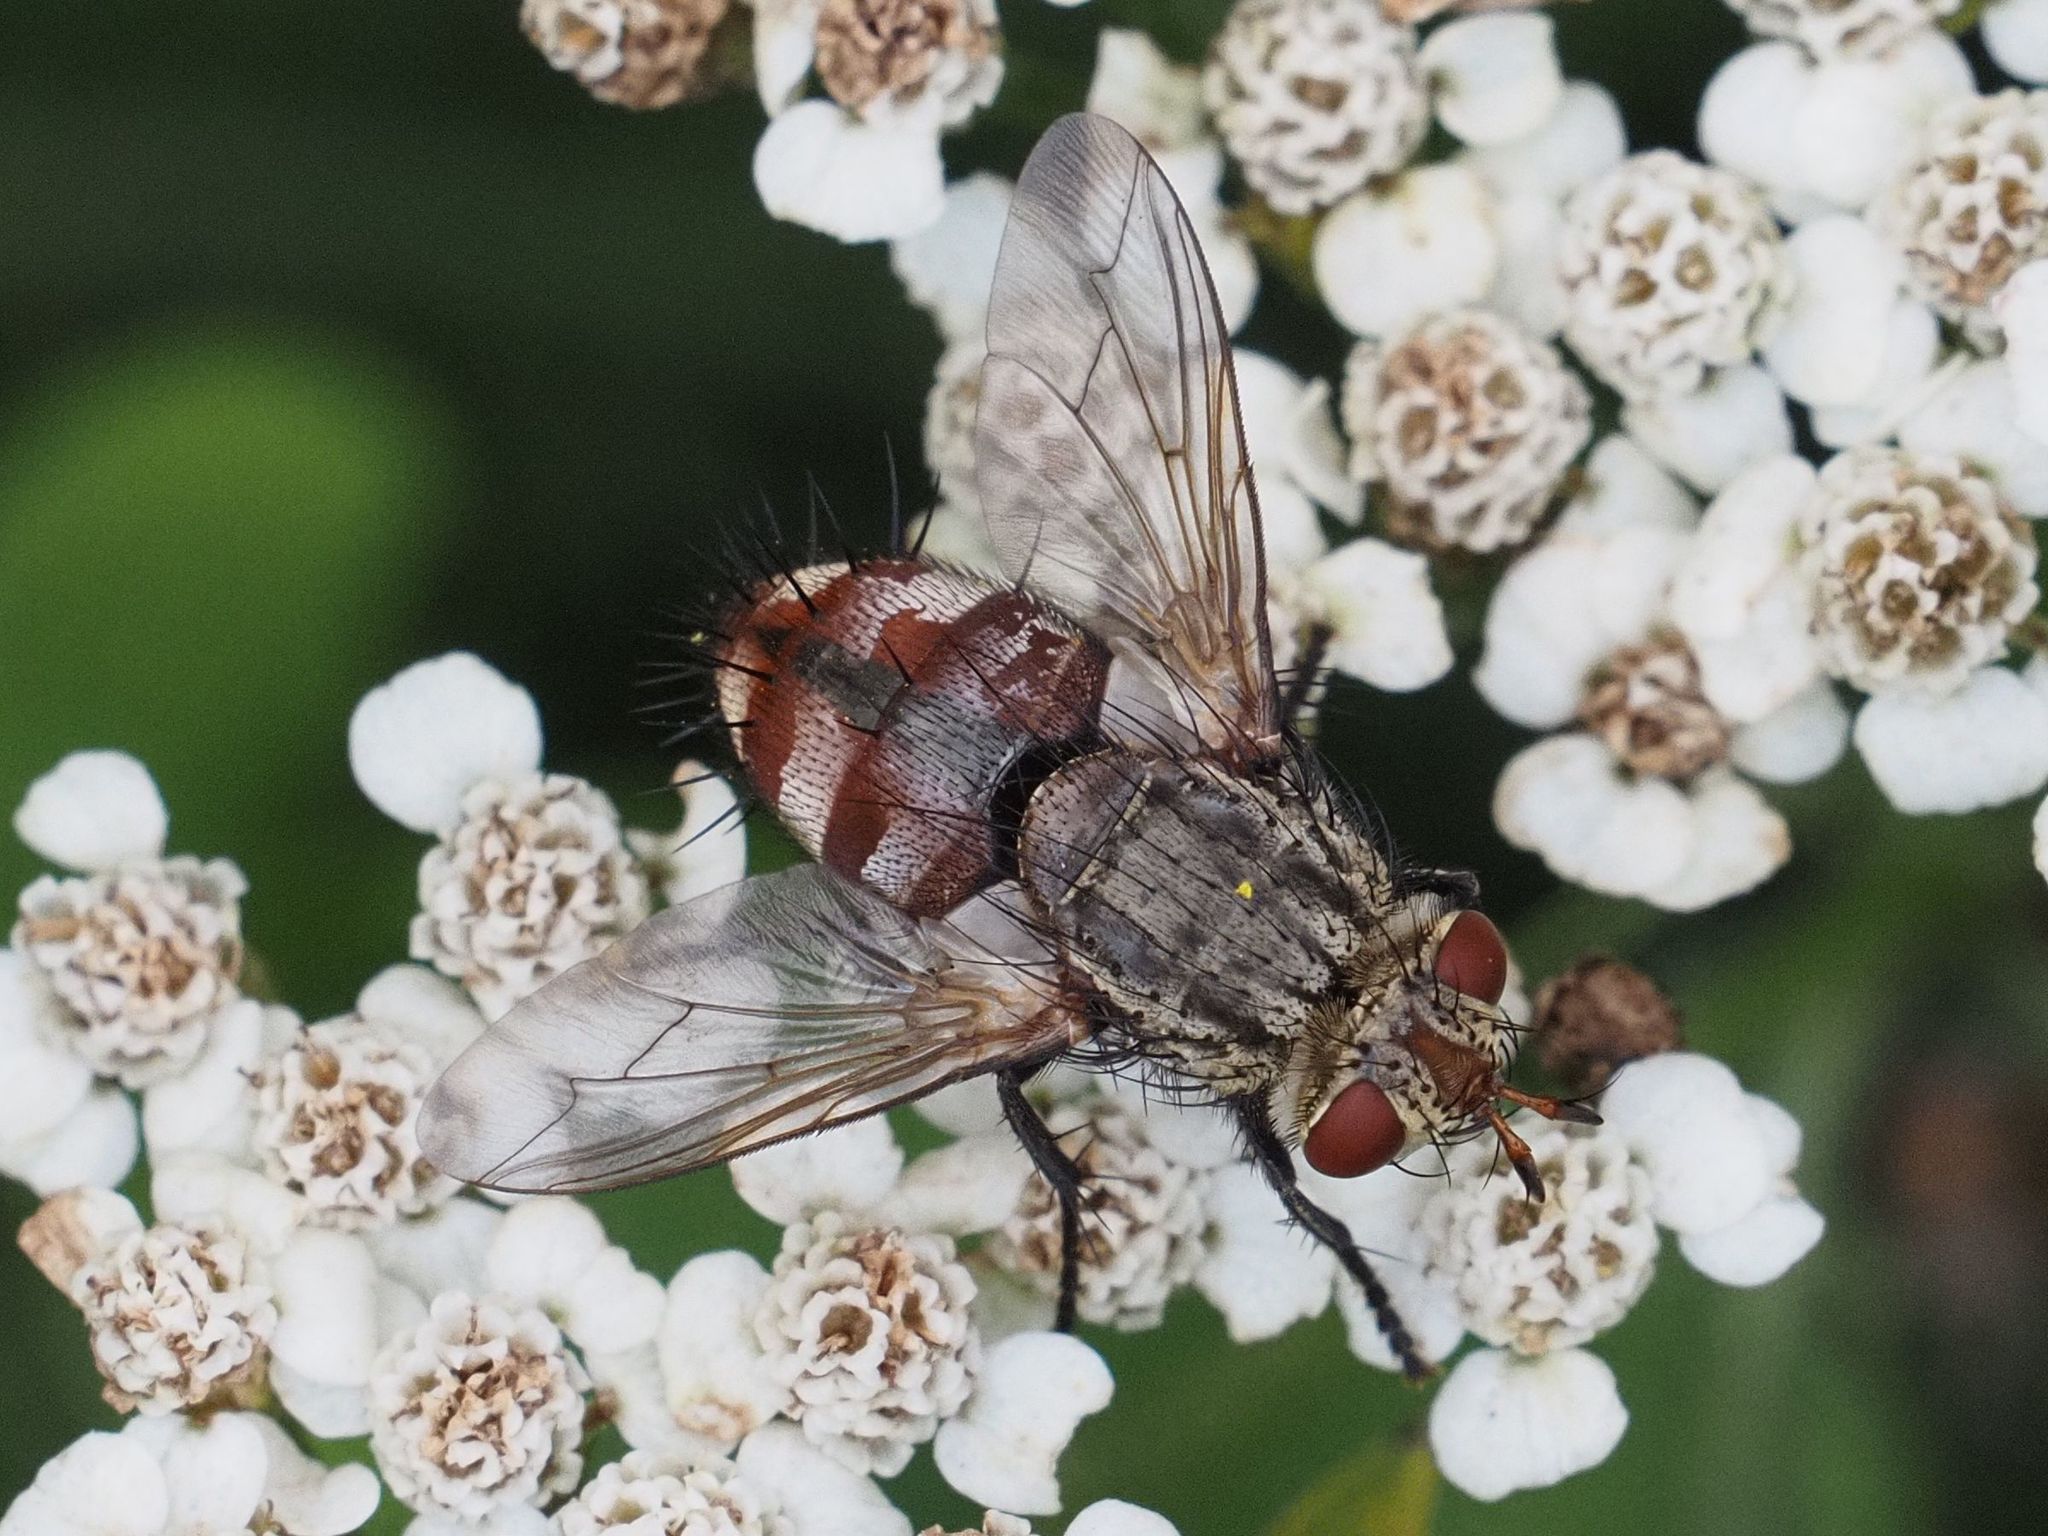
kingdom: Animalia
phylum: Arthropoda
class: Insecta
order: Diptera
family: Tachinidae
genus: Peleteria
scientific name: Peleteria javana
